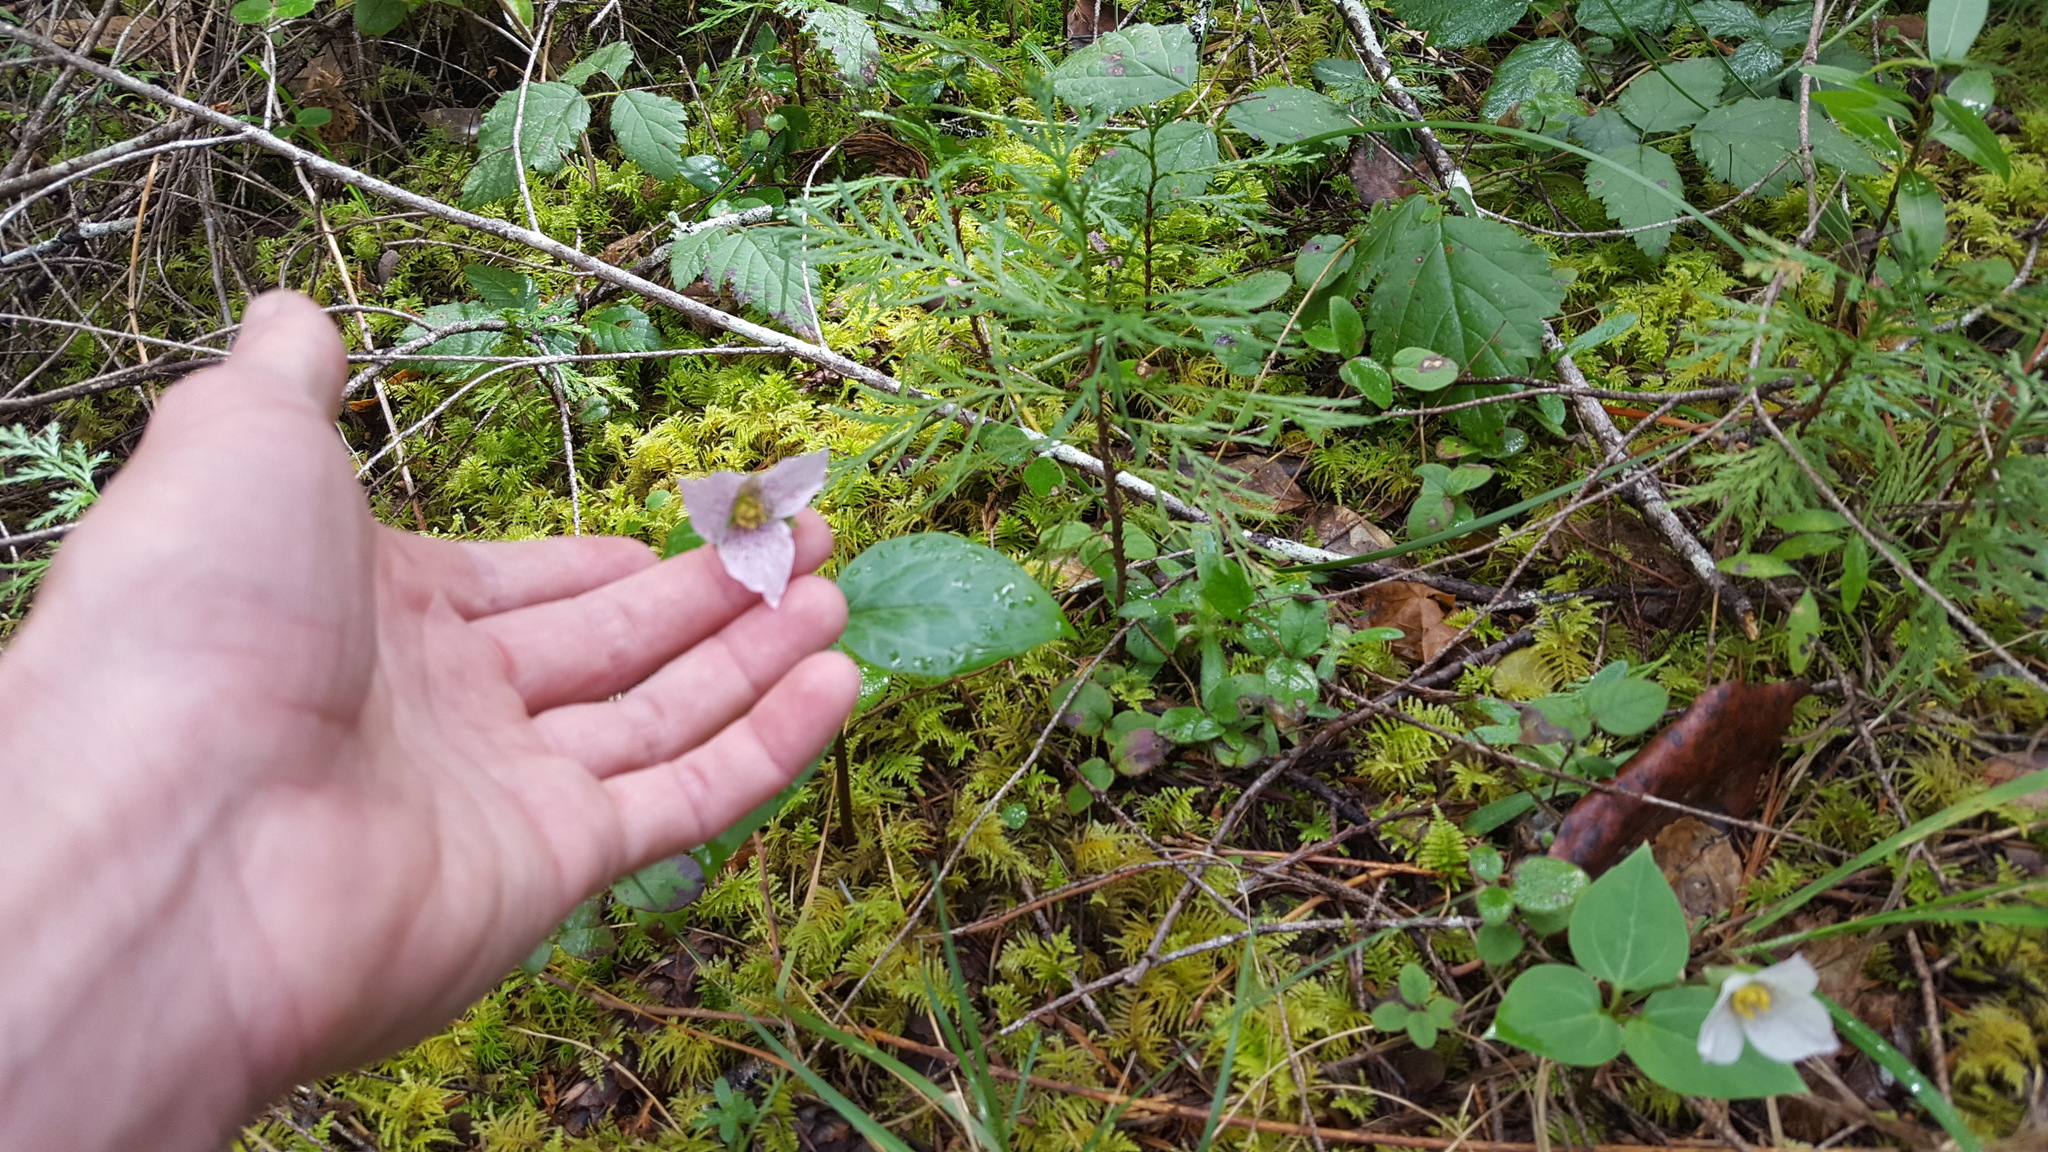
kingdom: Plantae
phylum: Tracheophyta
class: Liliopsida
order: Liliales
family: Melanthiaceae
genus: Pseudotrillium
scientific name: Pseudotrillium rivale
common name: Brook wakerobin
